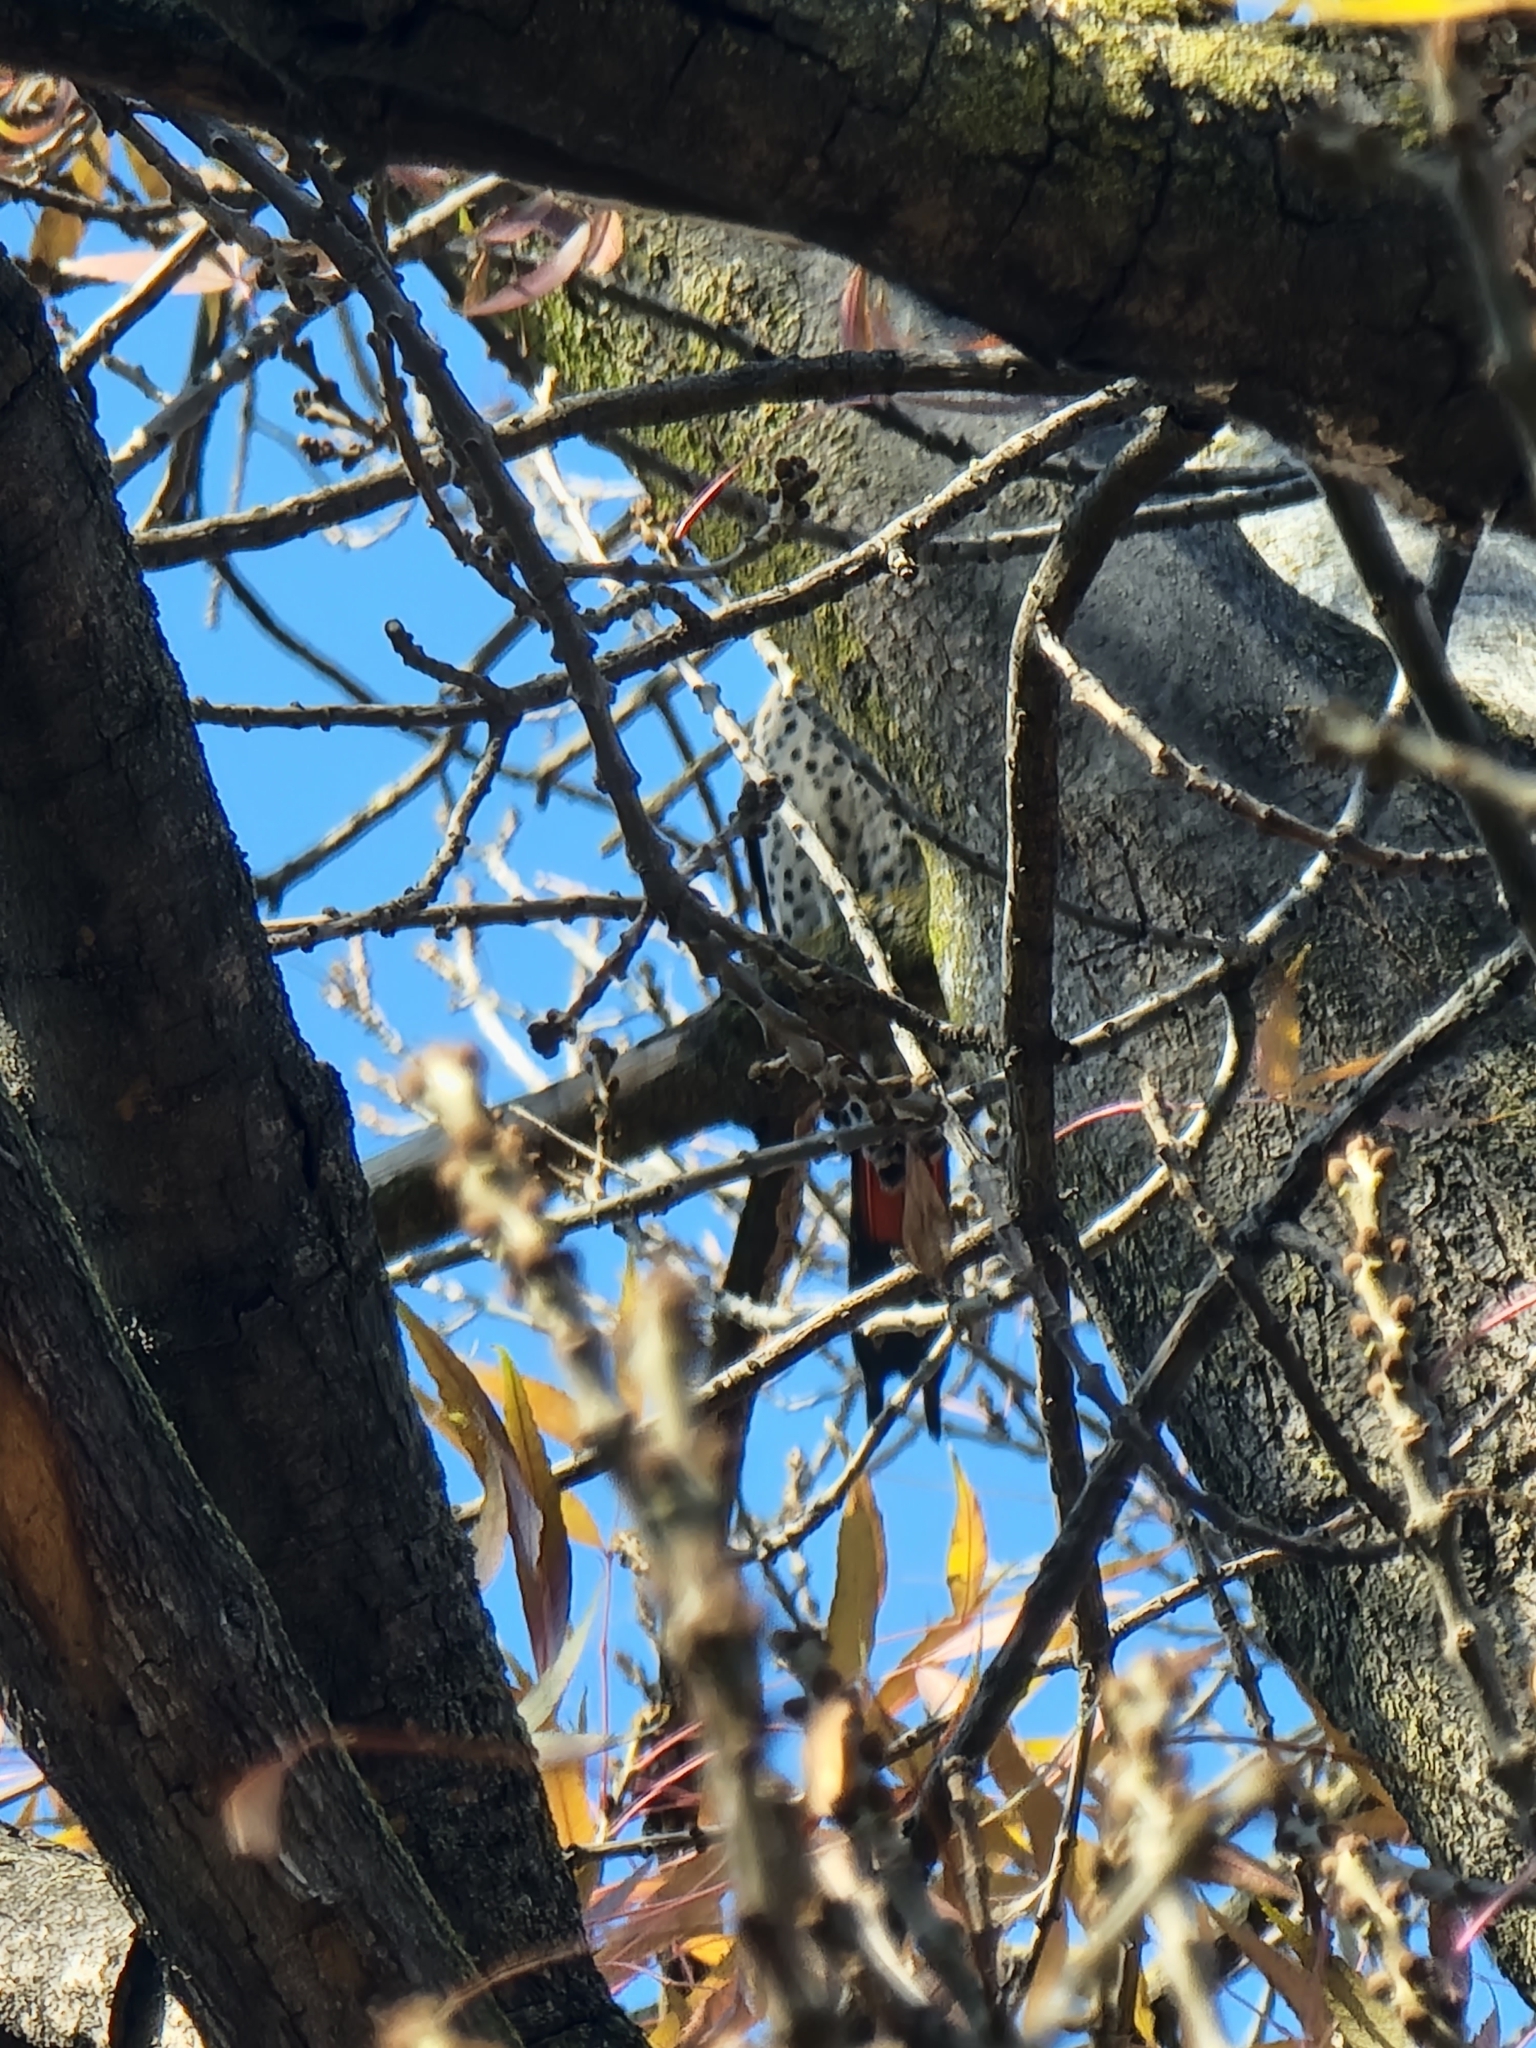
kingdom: Animalia
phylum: Chordata
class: Aves
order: Piciformes
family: Picidae
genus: Colaptes
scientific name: Colaptes auratus
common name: Northern flicker
